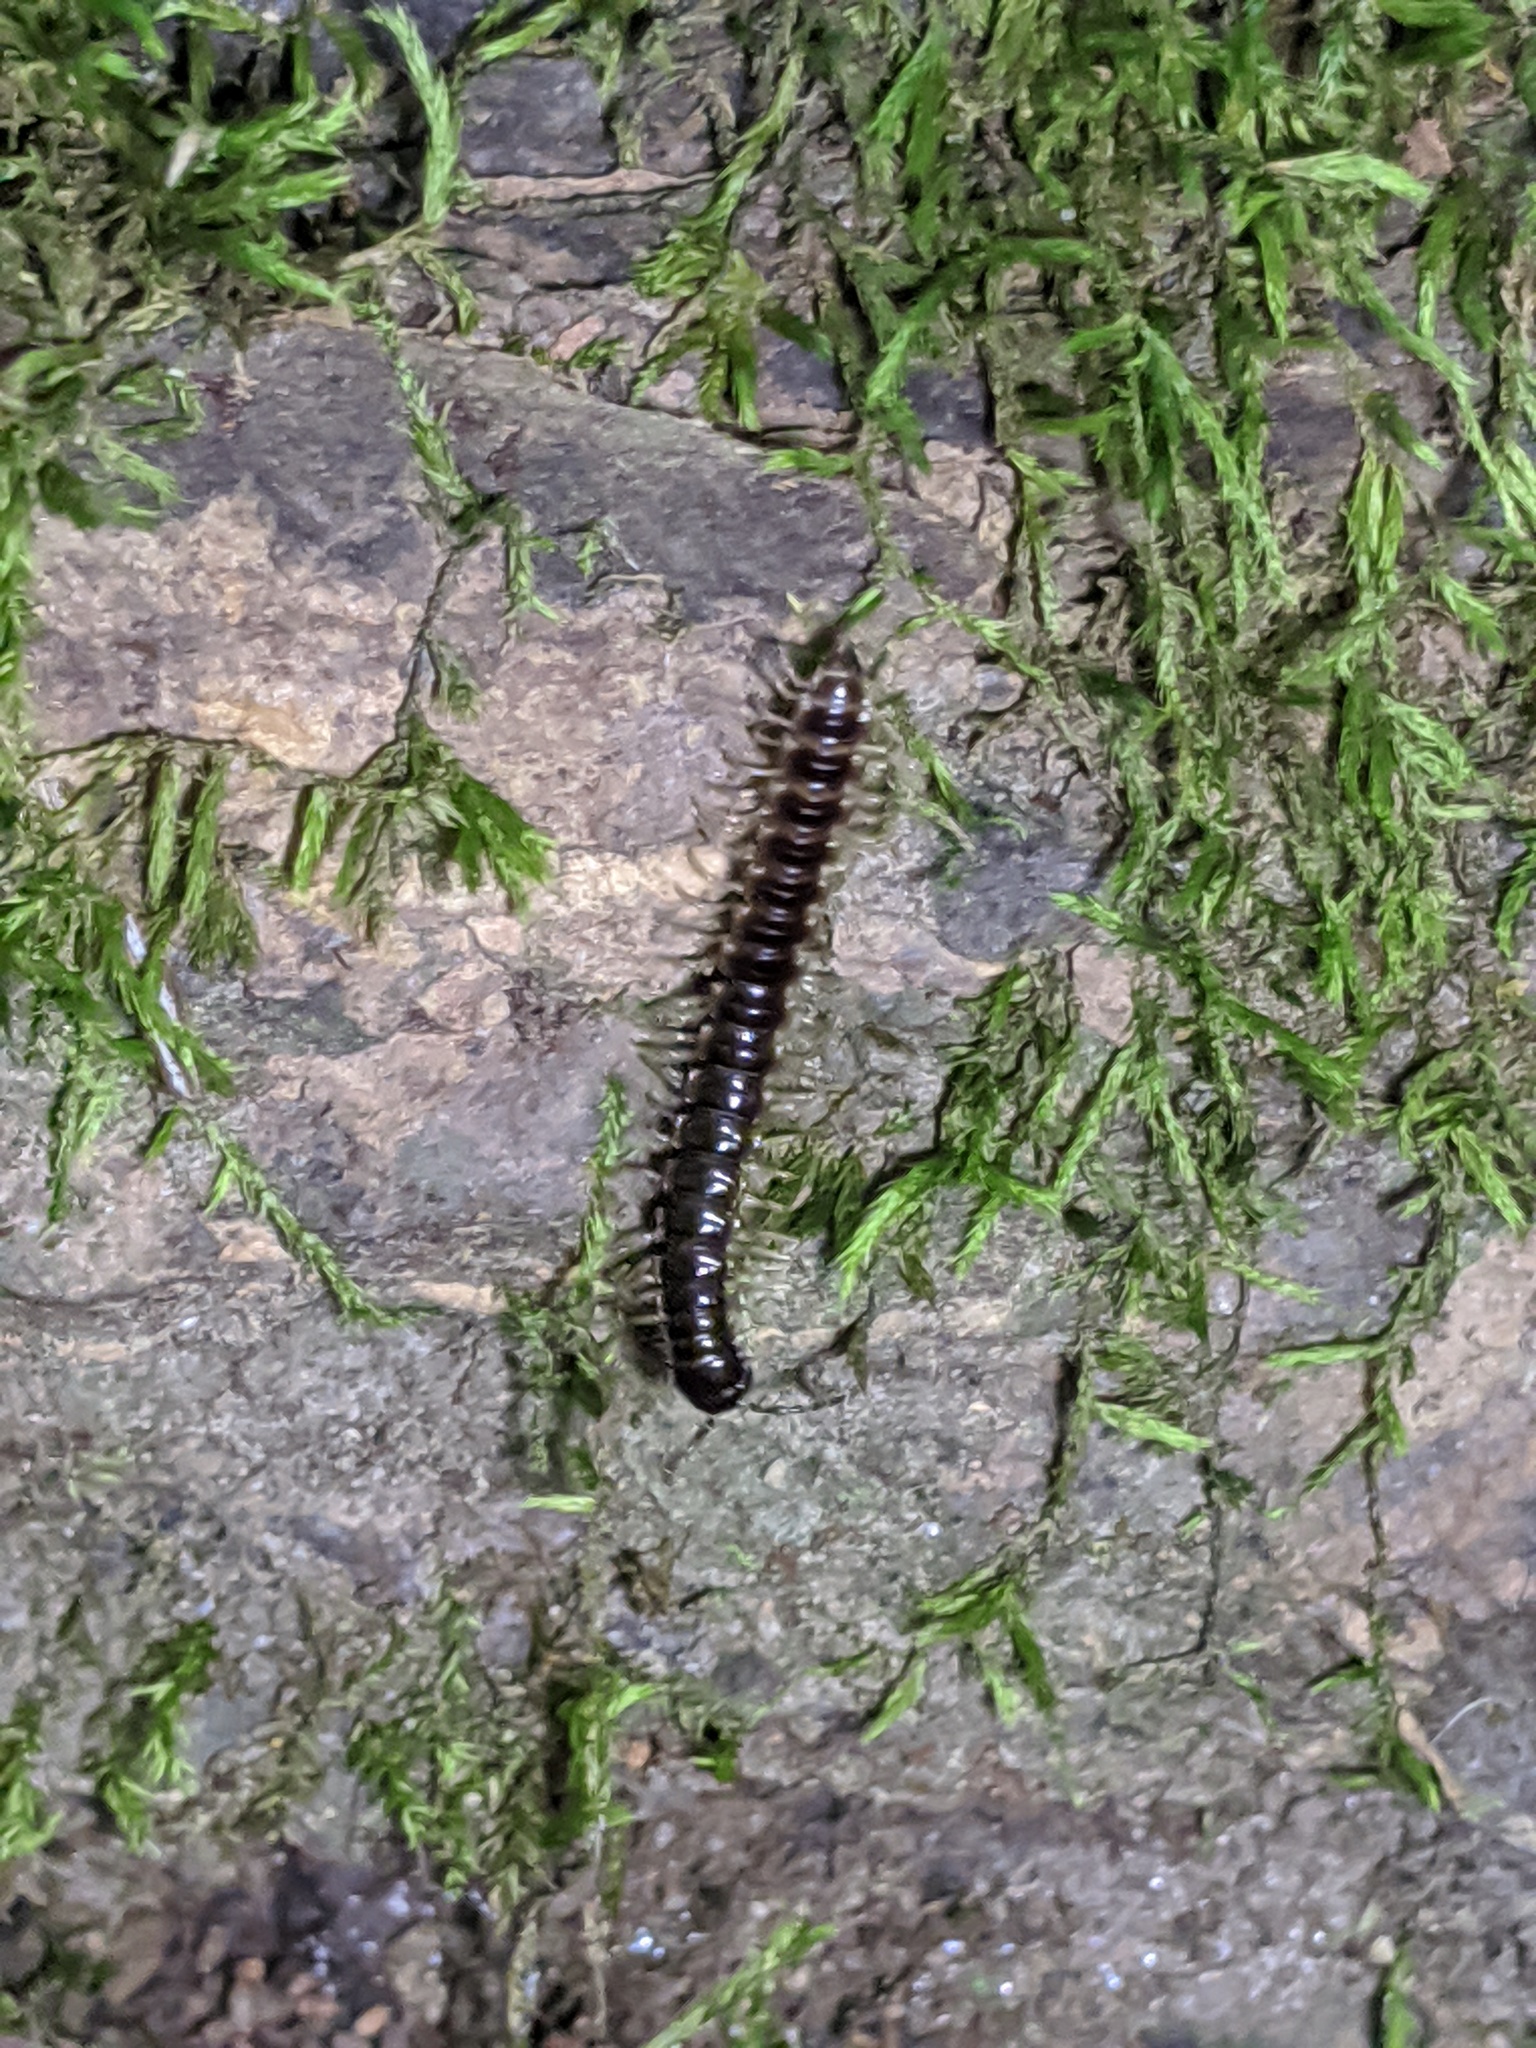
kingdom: Animalia
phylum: Arthropoda
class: Diplopoda
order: Polydesmida
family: Paradoxosomatidae
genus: Oxidus
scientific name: Oxidus gracilis
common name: Greenhouse millipede
